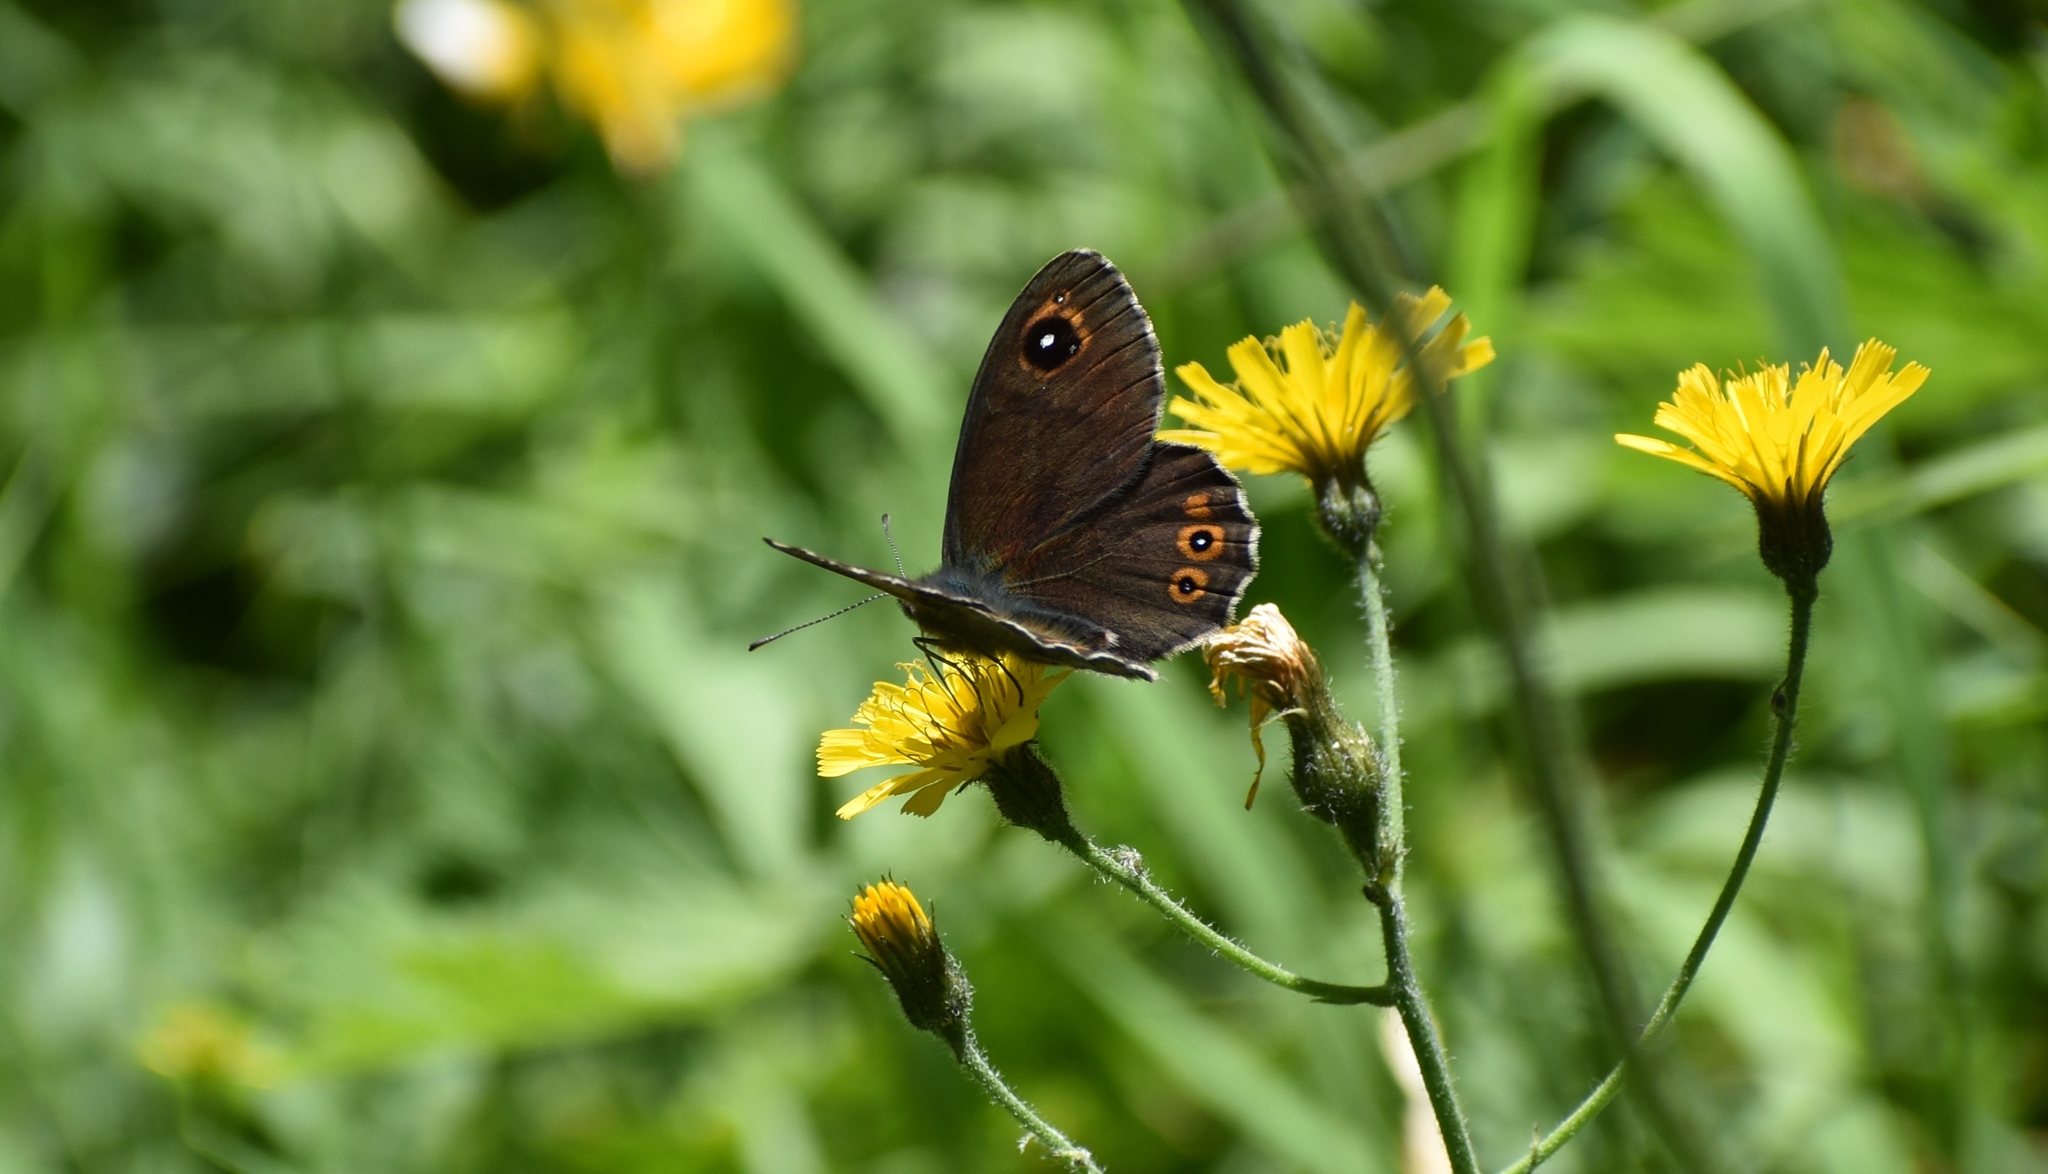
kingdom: Animalia
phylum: Arthropoda
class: Insecta
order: Lepidoptera
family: Nymphalidae
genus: Pararge
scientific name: Pararge Lasiommata maera
